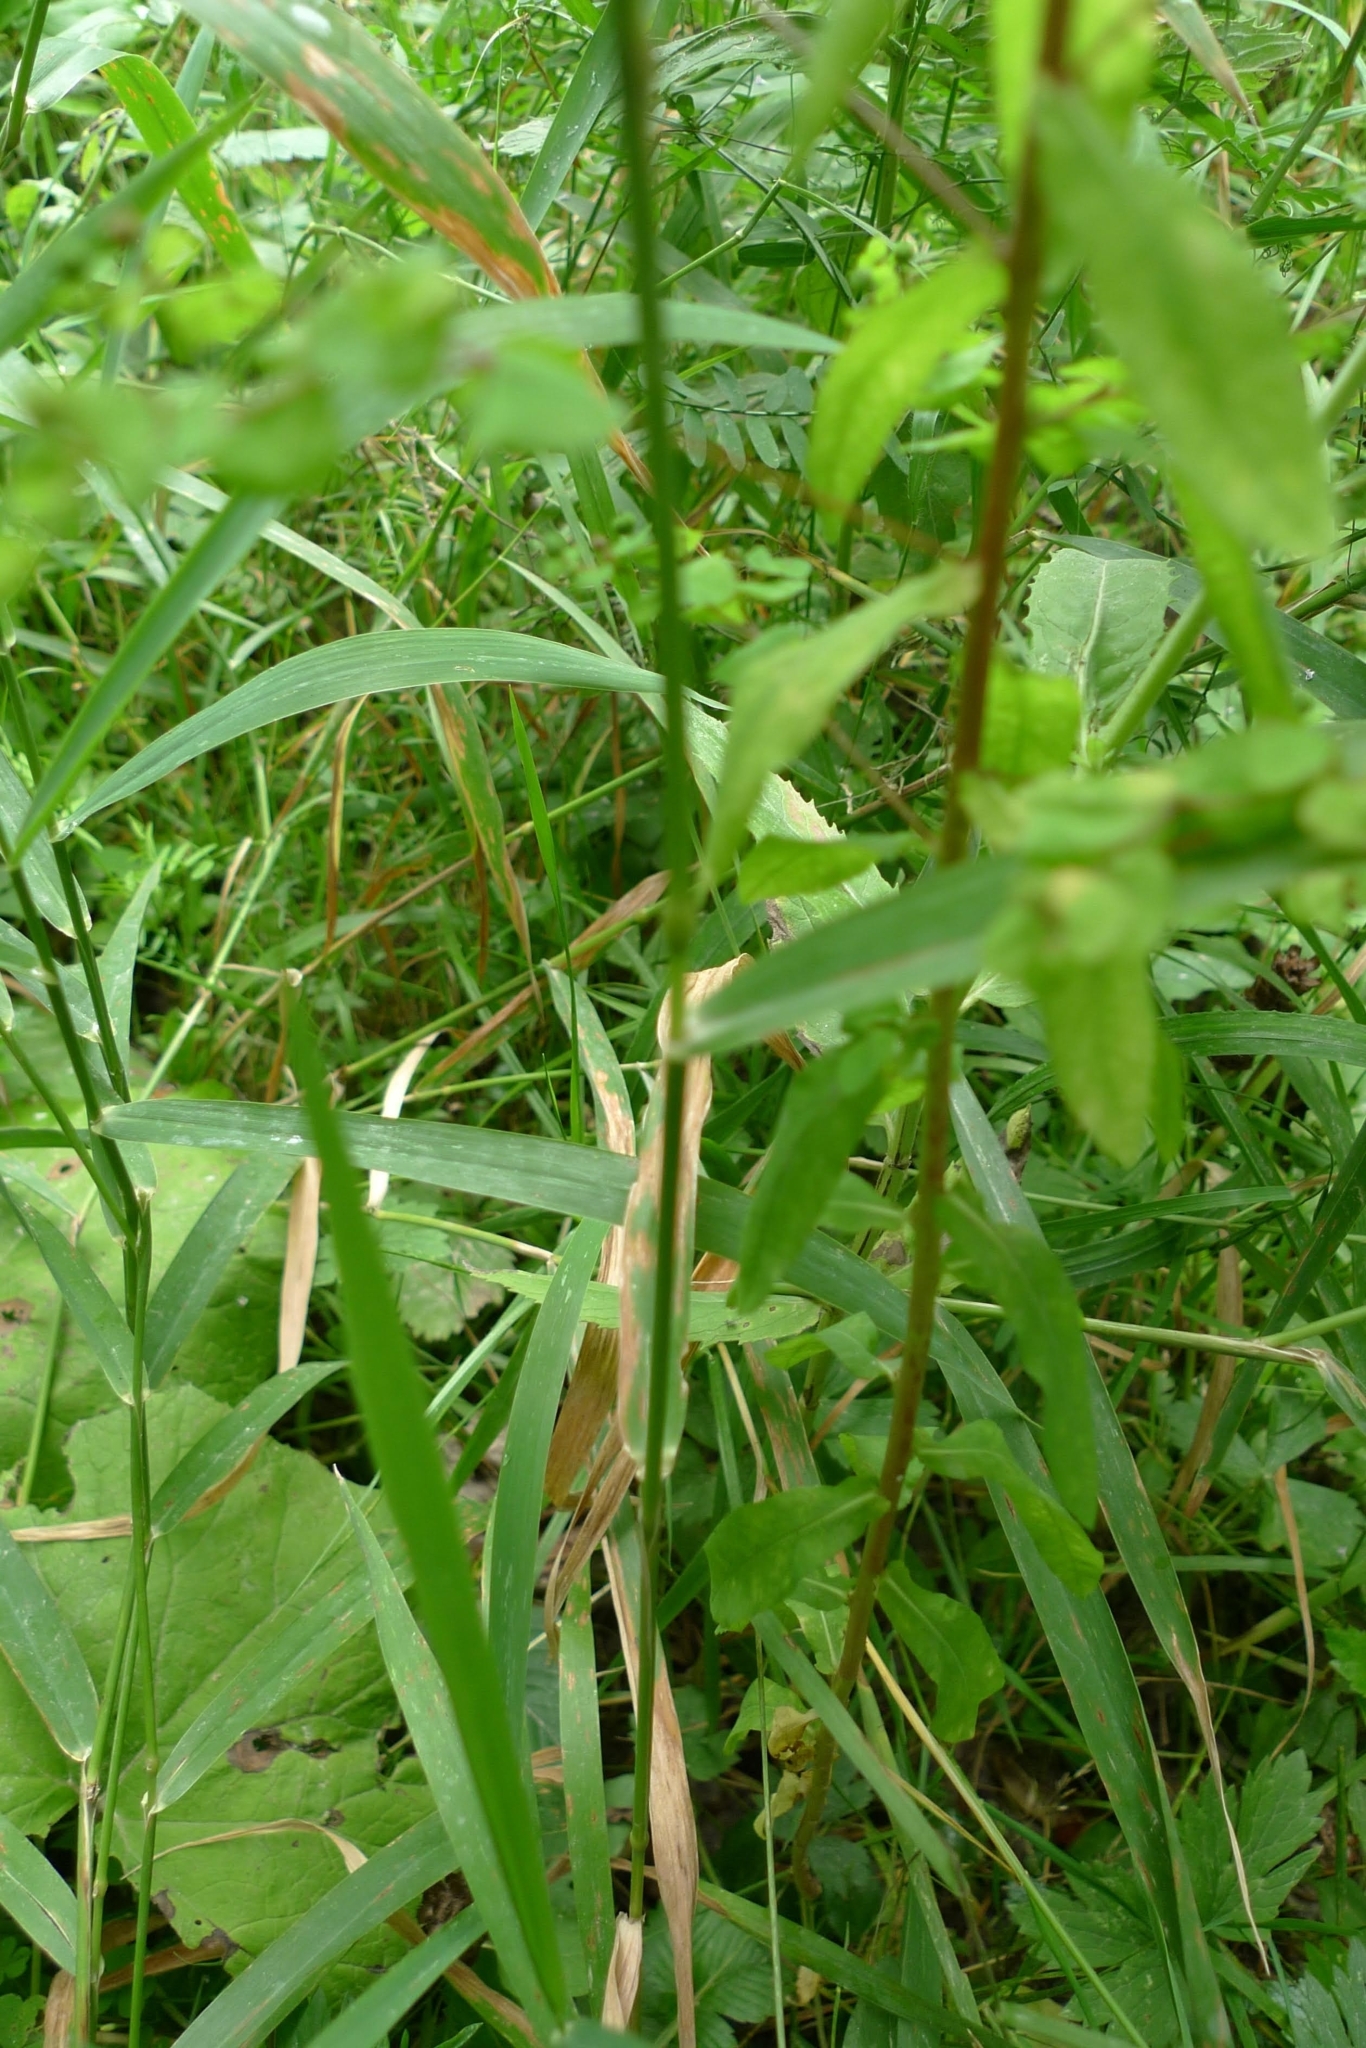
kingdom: Plantae
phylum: Tracheophyta
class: Magnoliopsida
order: Malpighiales
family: Euphorbiaceae
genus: Euphorbia
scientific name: Euphorbia stricta
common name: Upright spurge
